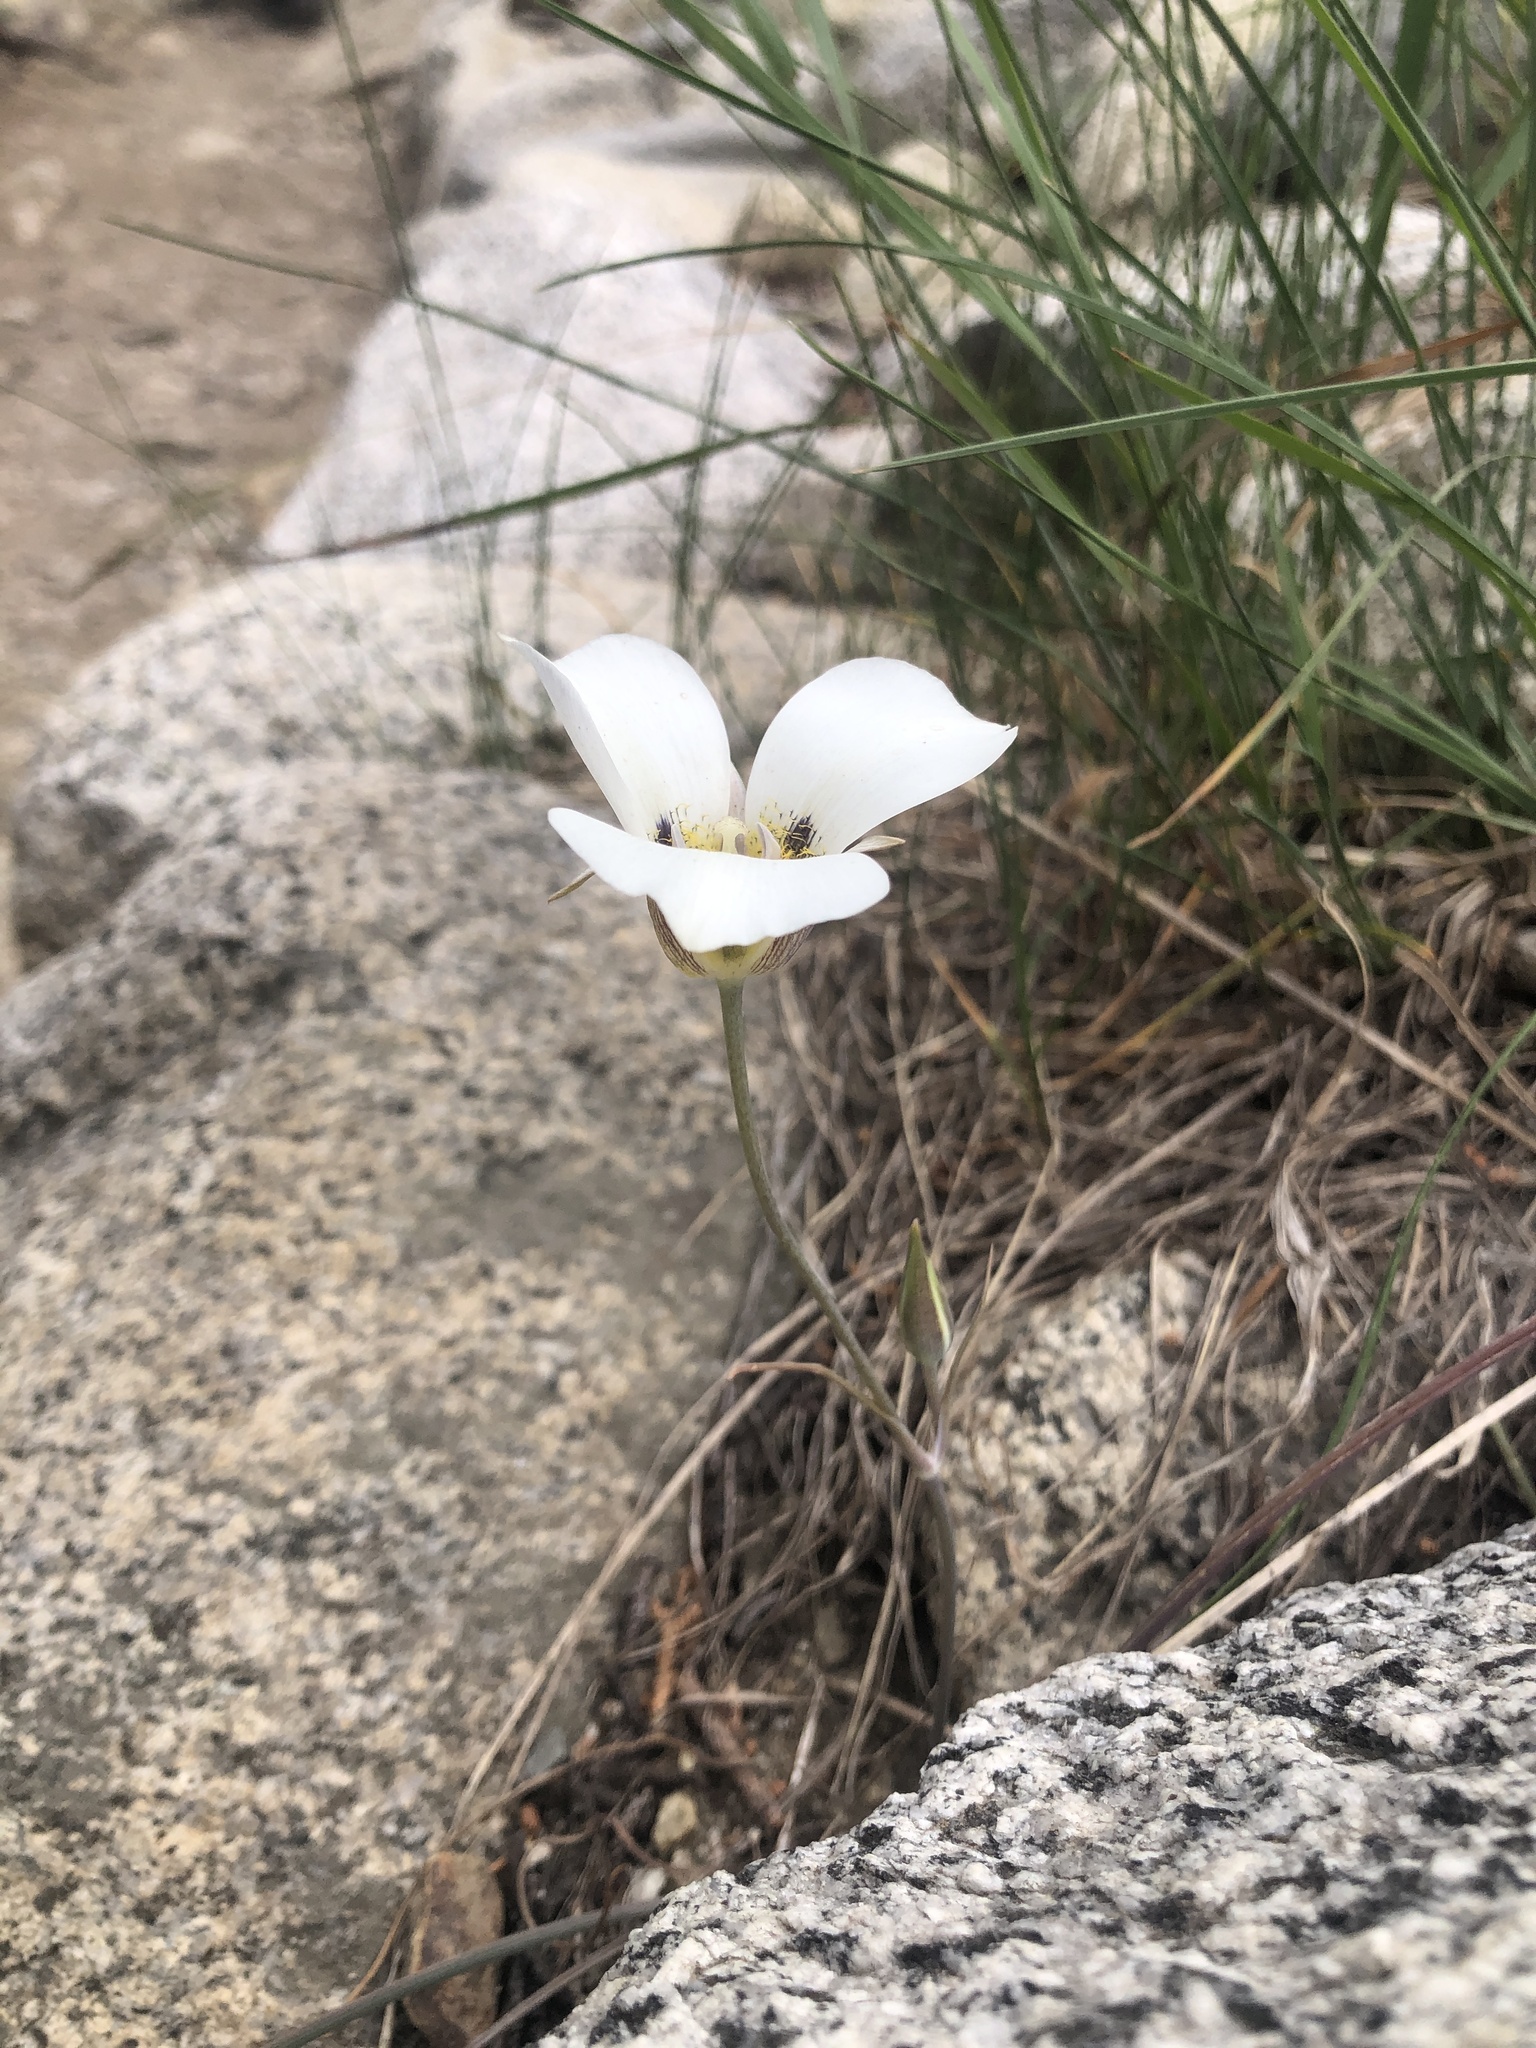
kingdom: Plantae
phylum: Tracheophyta
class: Liliopsida
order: Liliales
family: Liliaceae
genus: Calochortus
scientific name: Calochortus leichtlinii
